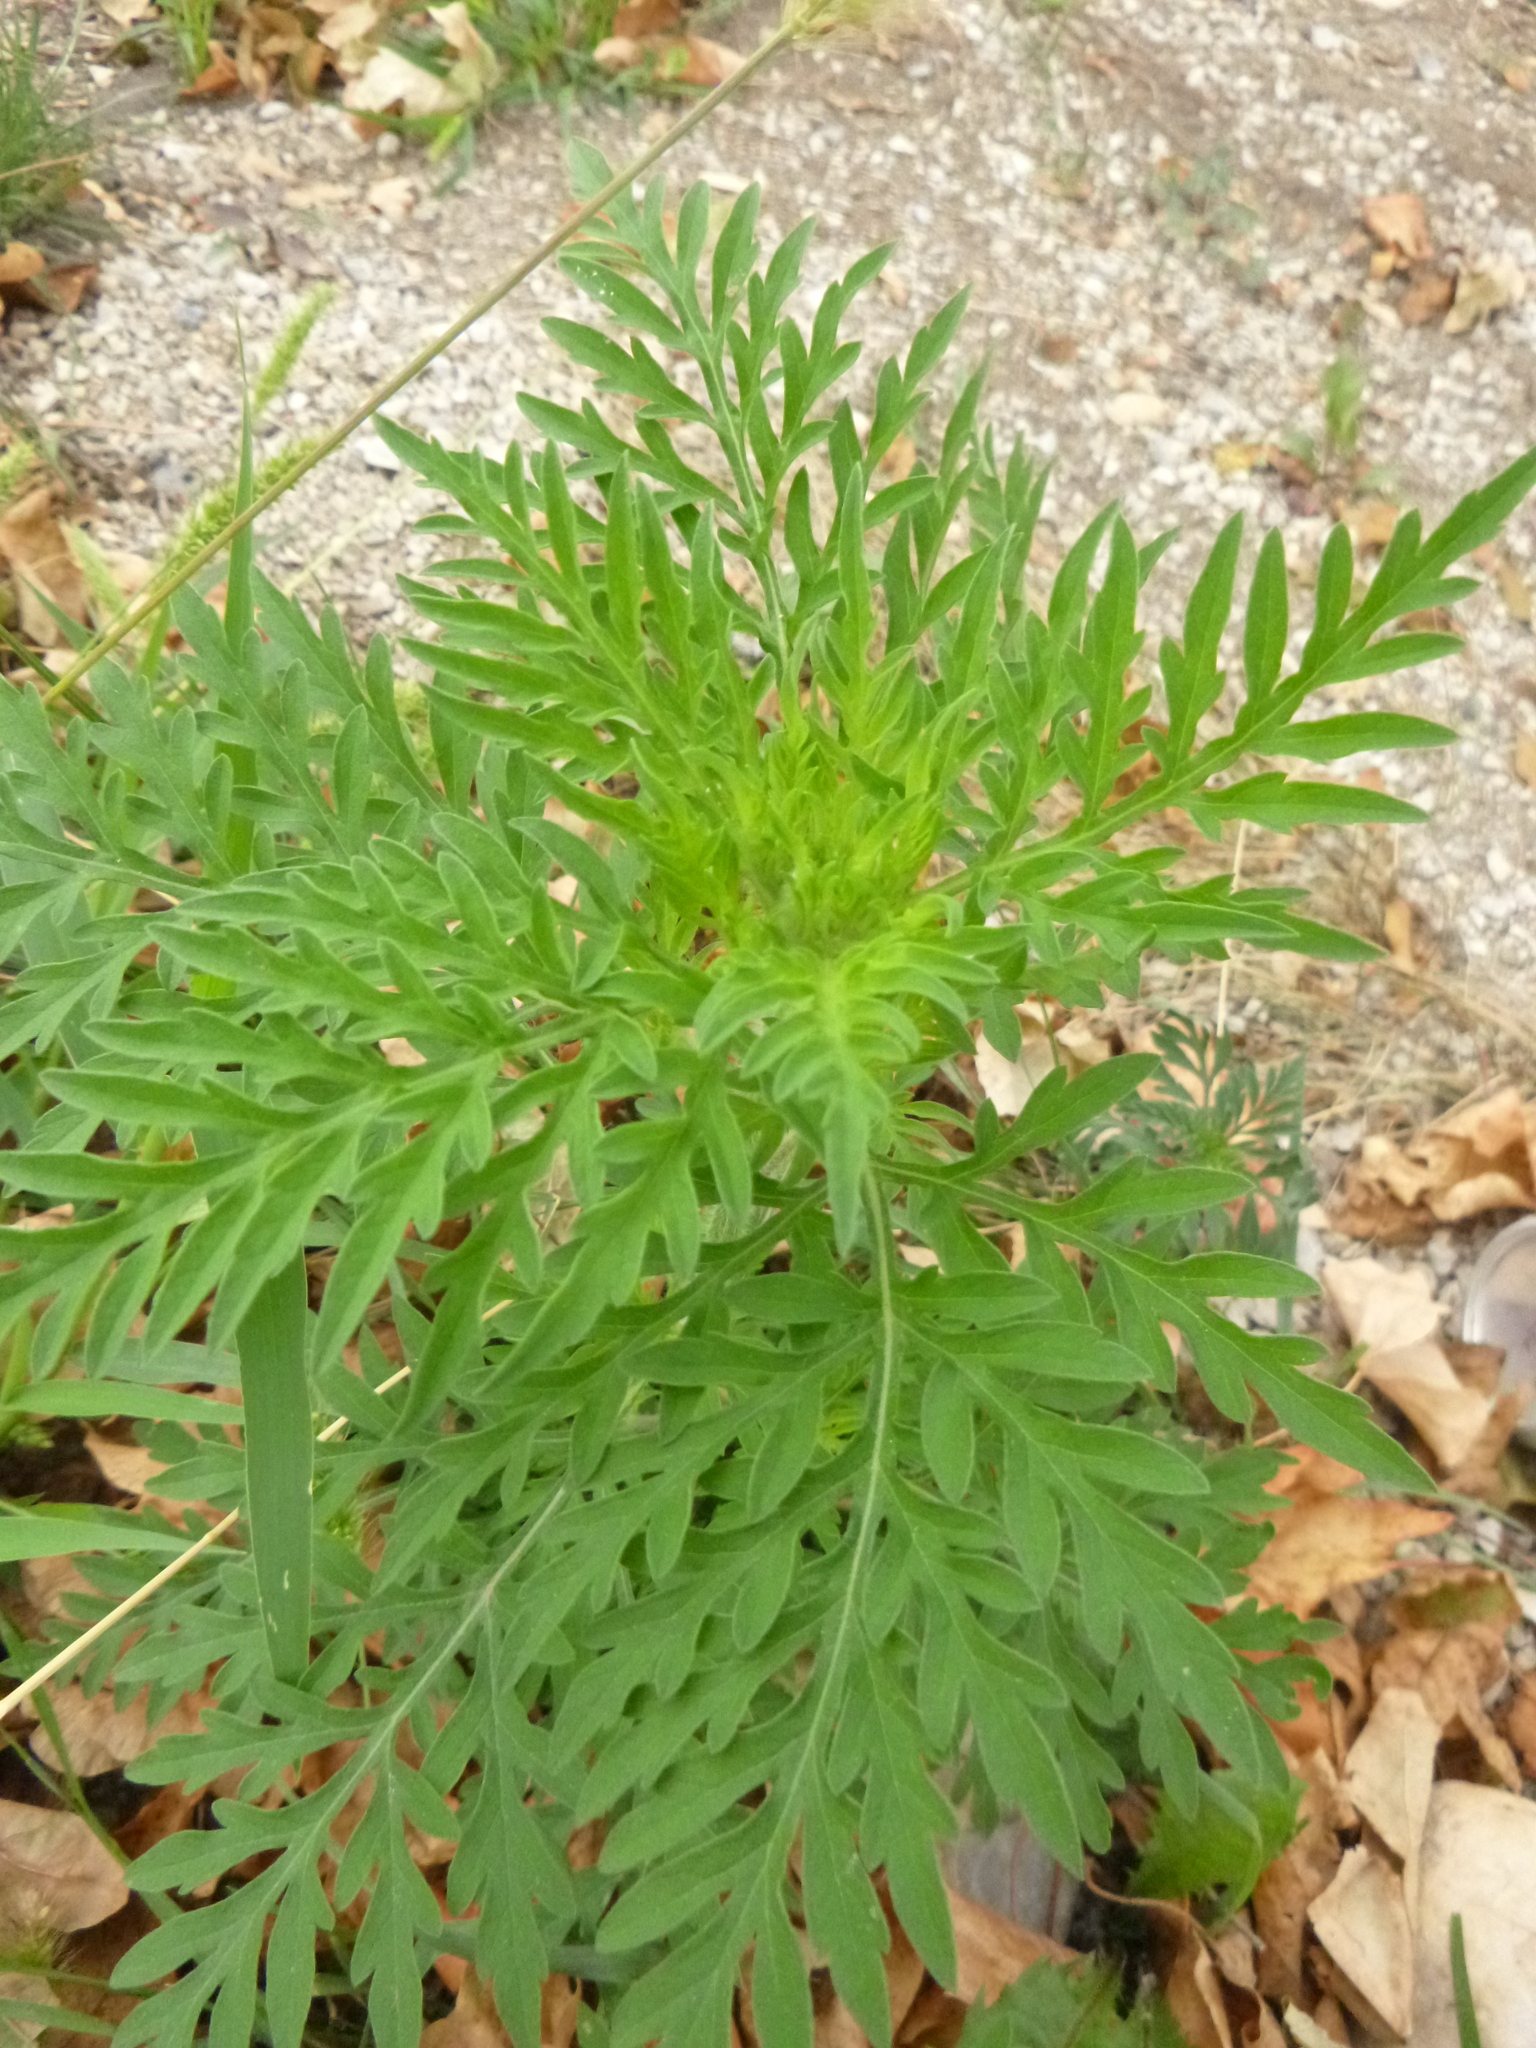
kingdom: Plantae
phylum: Tracheophyta
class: Magnoliopsida
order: Asterales
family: Asteraceae
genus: Ambrosia
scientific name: Ambrosia artemisiifolia
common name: Annual ragweed
